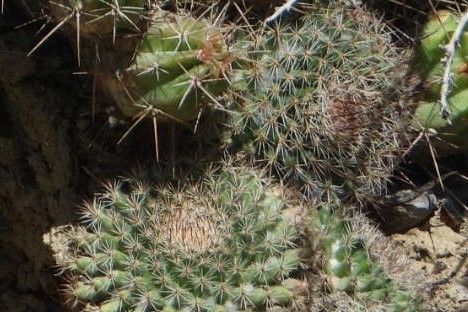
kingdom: Plantae
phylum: Tracheophyta
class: Magnoliopsida
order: Caryophyllales
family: Cactaceae
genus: Mammillaria
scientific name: Mammillaria brandegeei
